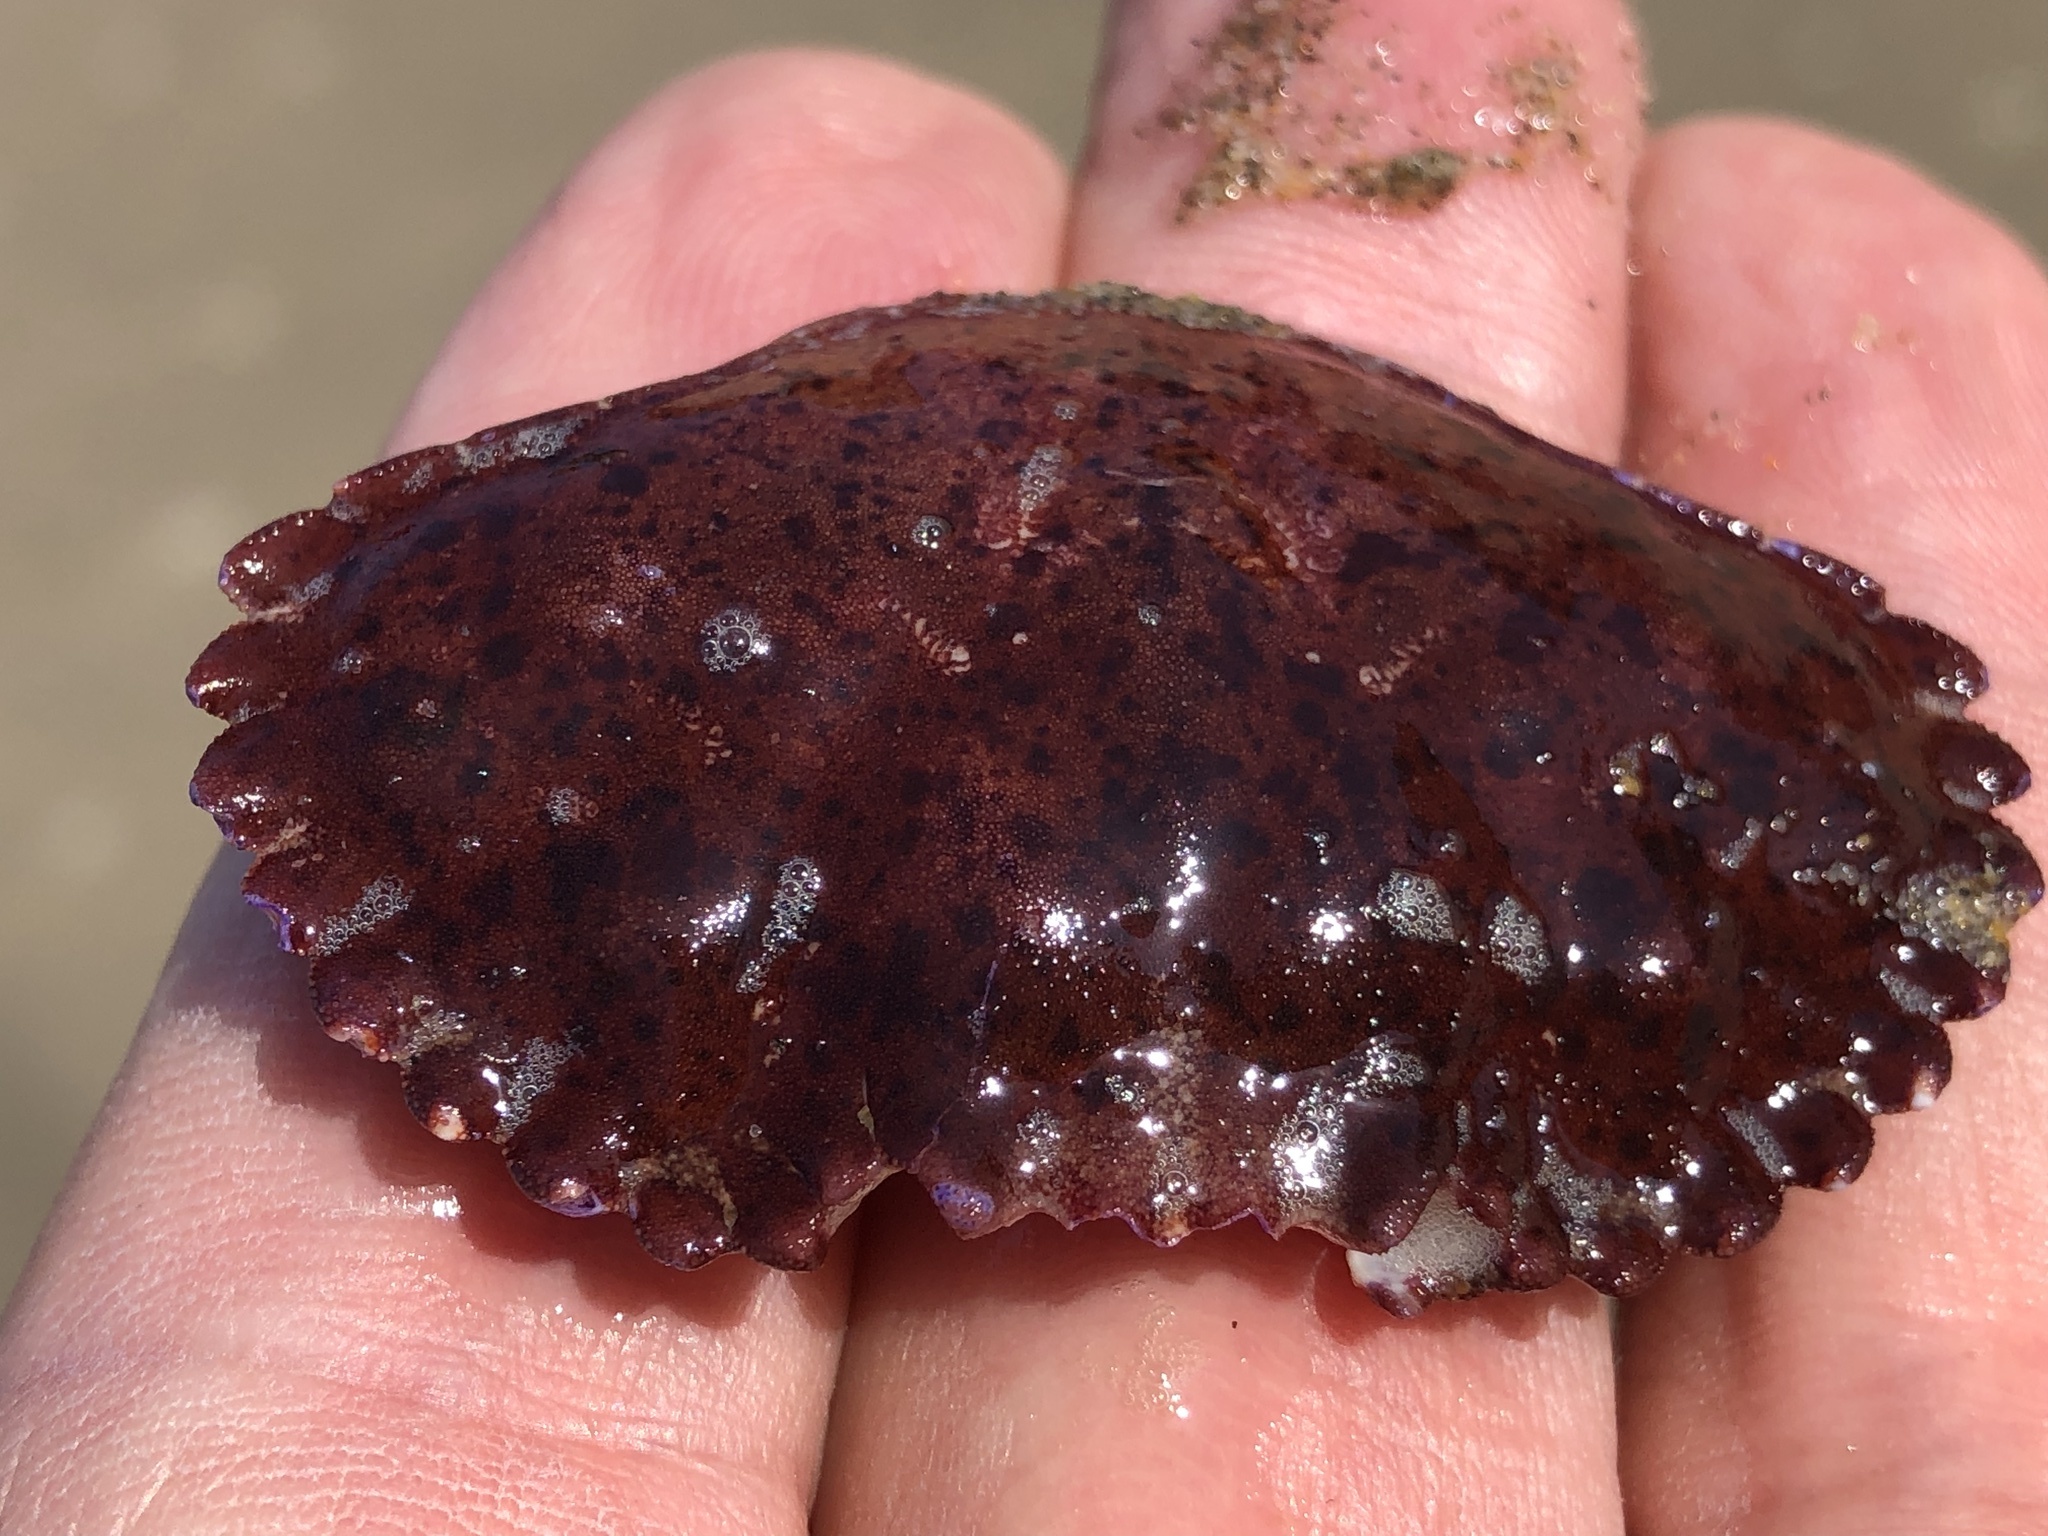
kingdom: Animalia
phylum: Arthropoda
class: Malacostraca
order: Decapoda
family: Cancridae
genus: Romaleon
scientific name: Romaleon antennarium
